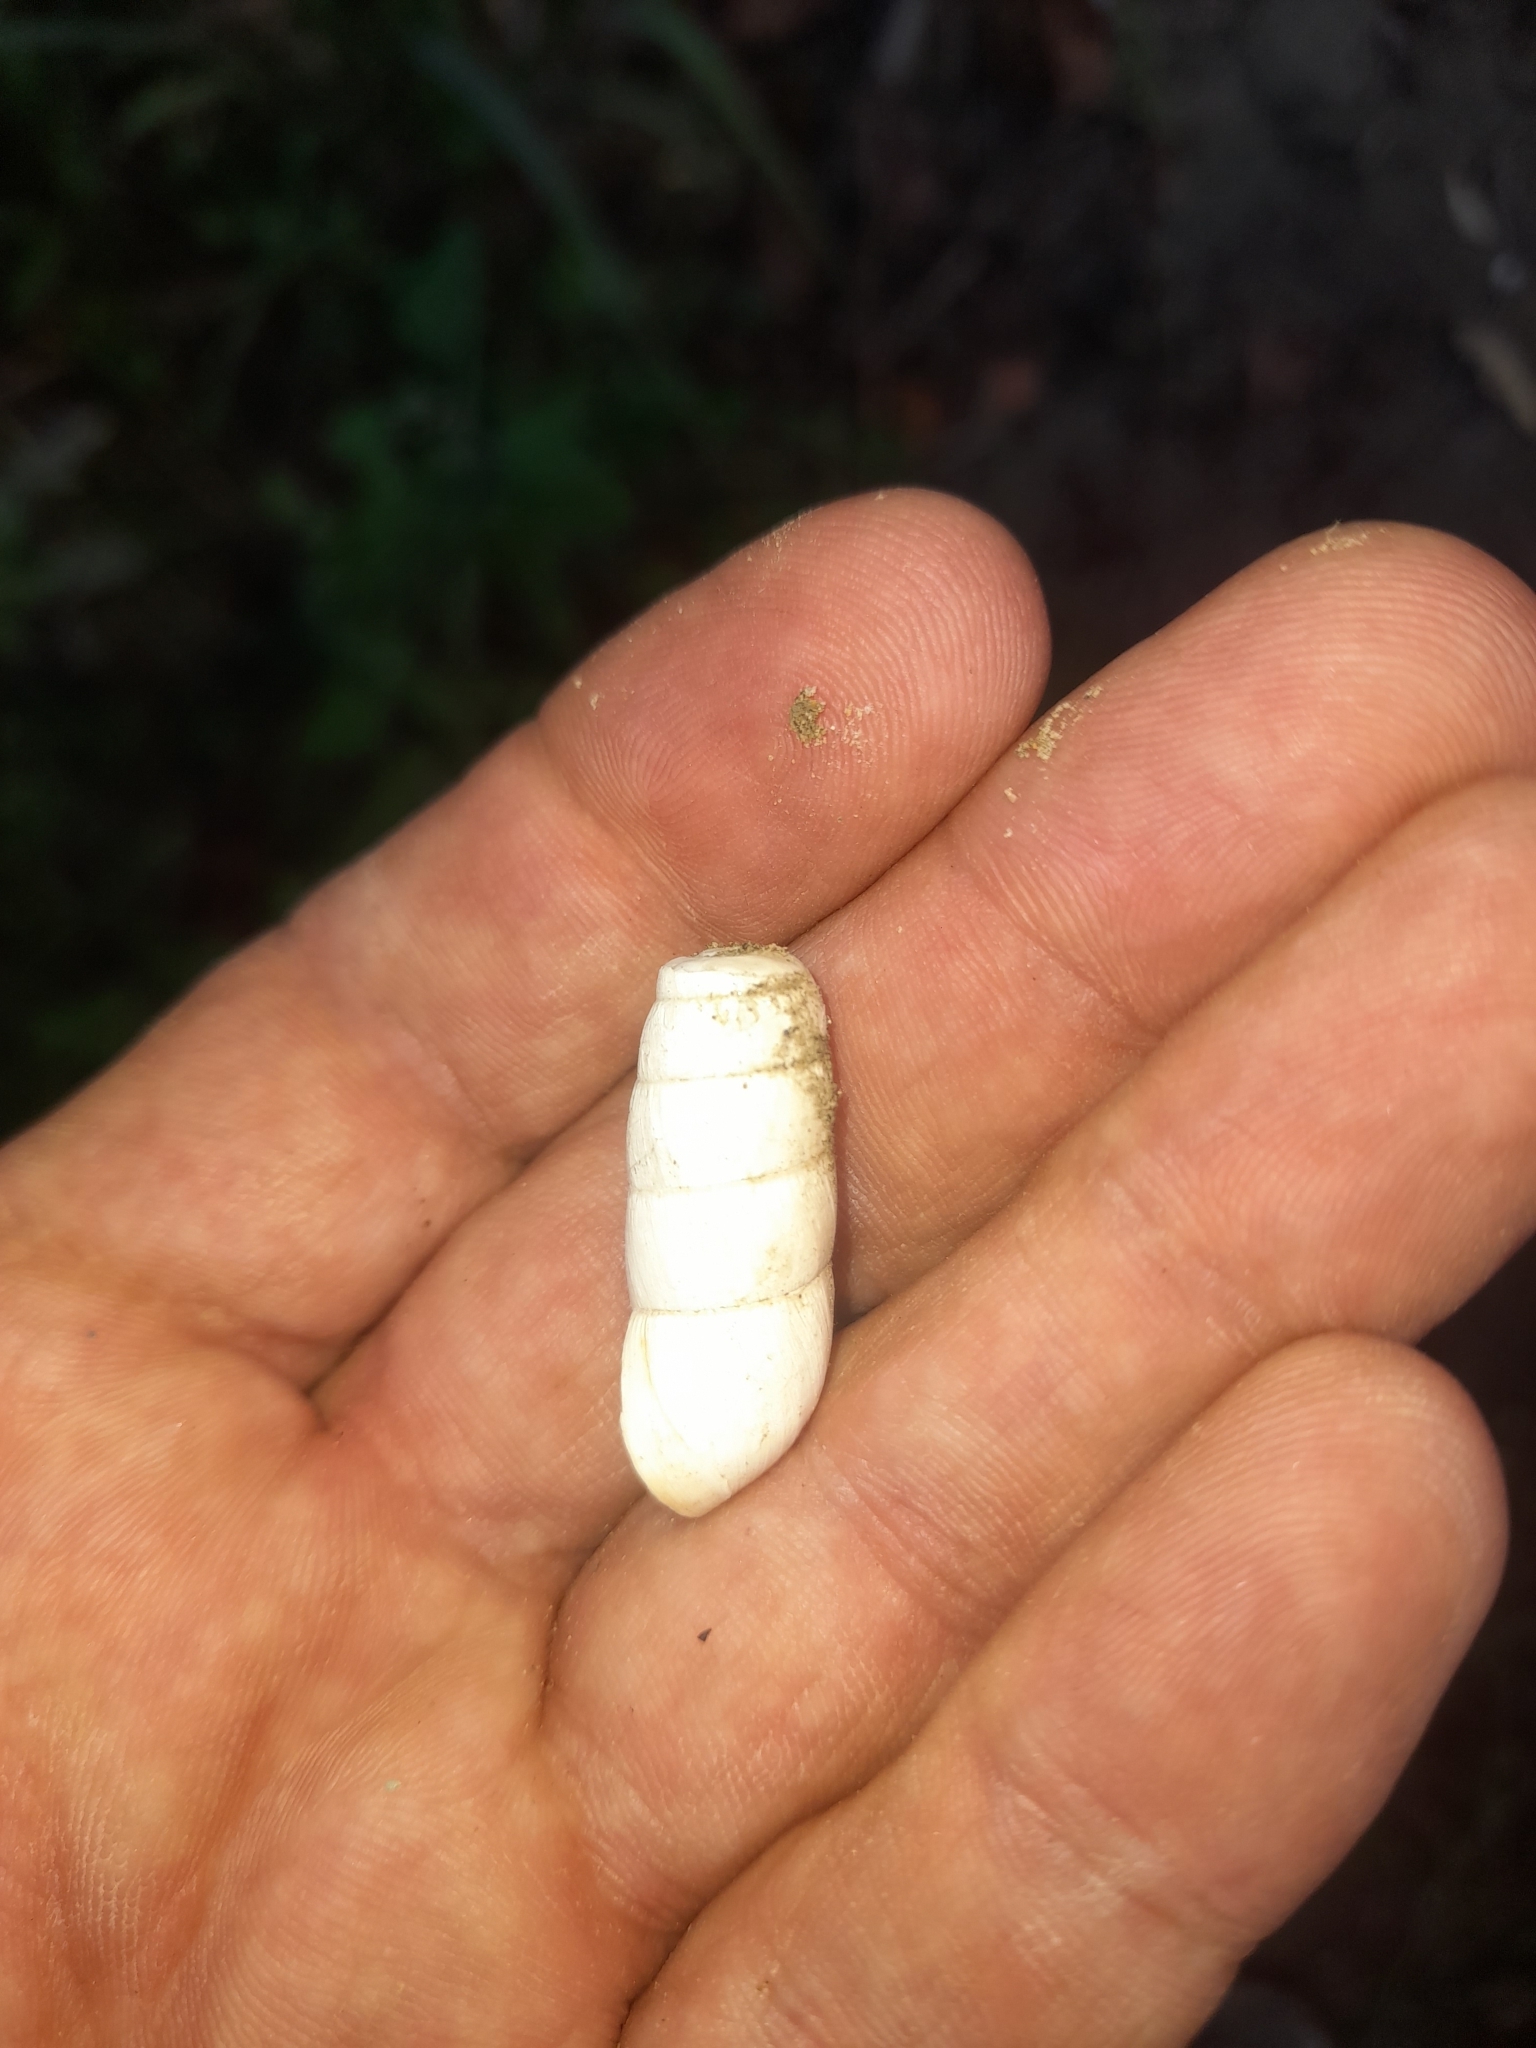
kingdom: Animalia
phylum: Mollusca
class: Gastropoda
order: Stylommatophora
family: Achatinidae
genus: Rumina
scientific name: Rumina decollata
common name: Decollate snail
